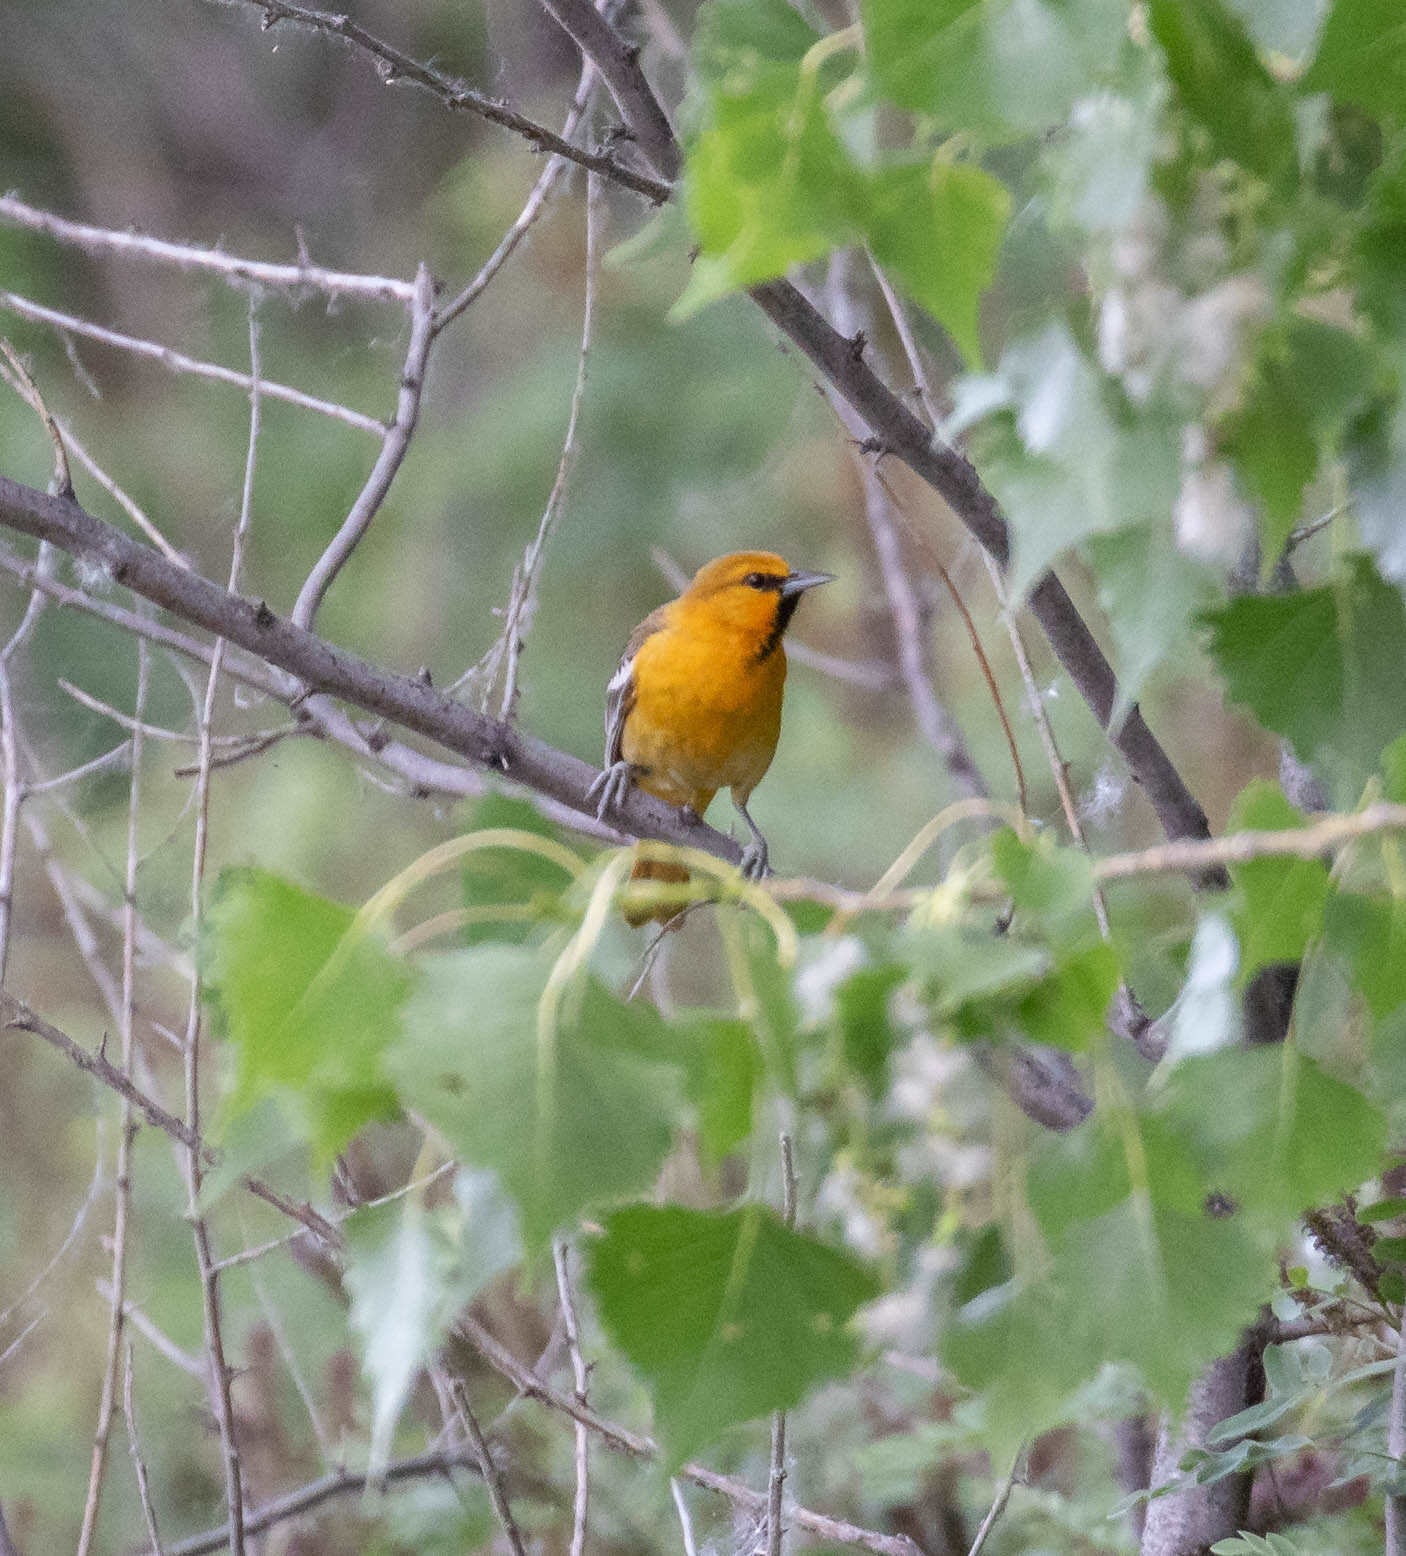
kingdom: Animalia
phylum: Chordata
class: Aves
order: Passeriformes
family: Icteridae
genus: Icterus
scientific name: Icterus bullockii
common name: Bullock's oriole
